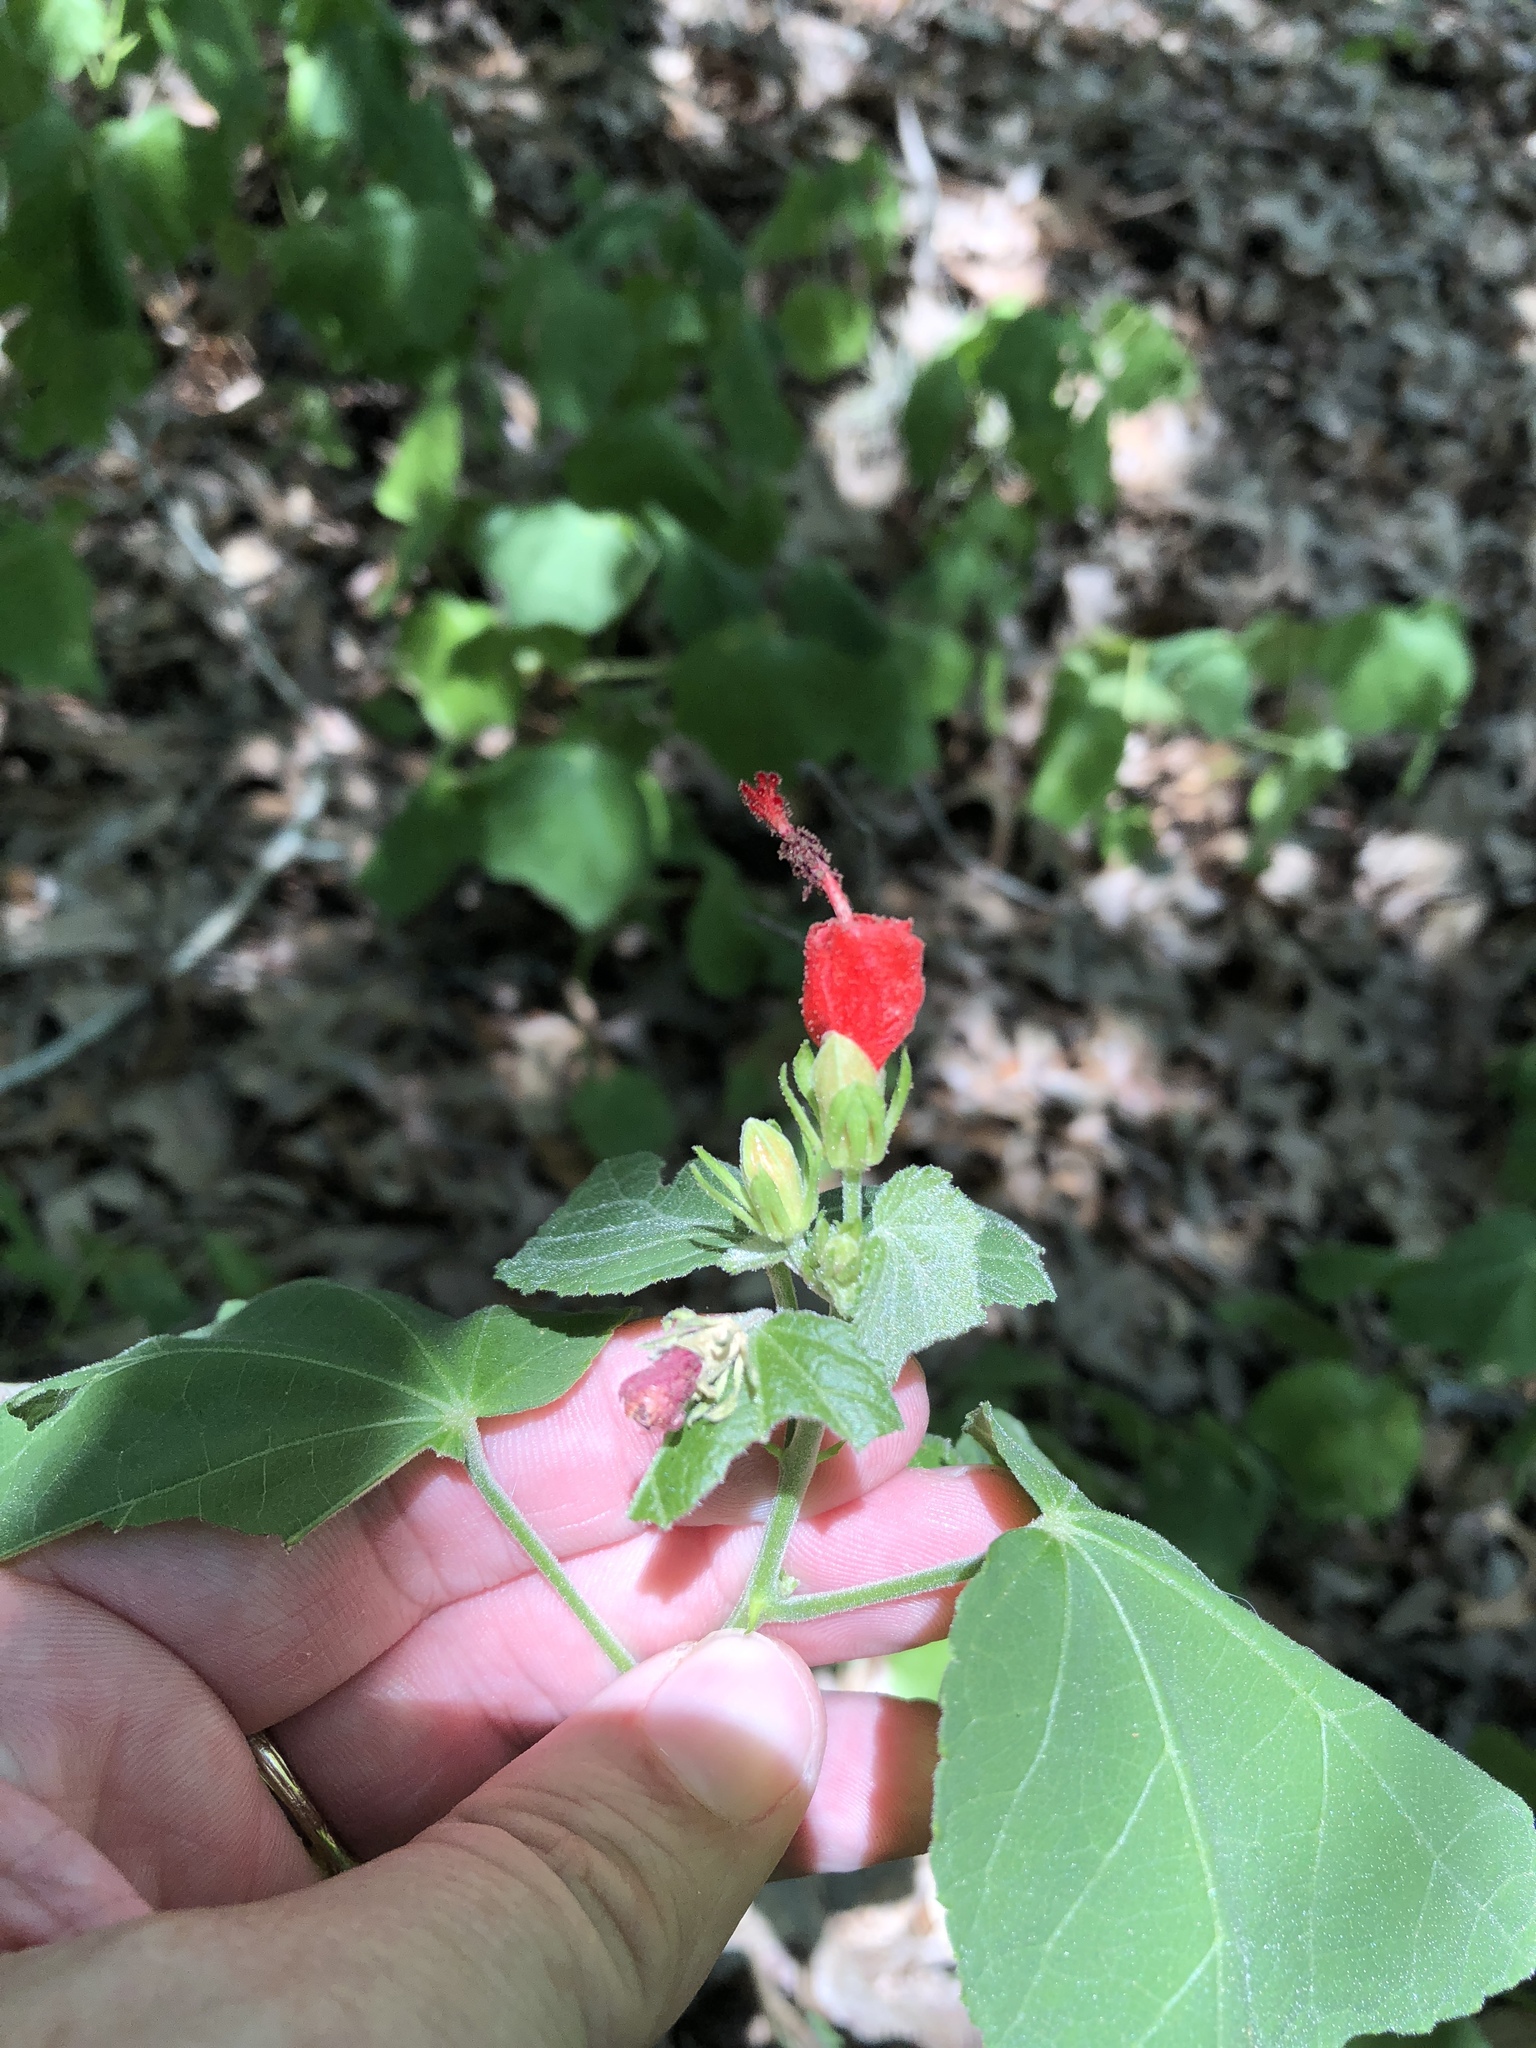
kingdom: Plantae
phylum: Tracheophyta
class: Magnoliopsida
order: Malvales
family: Malvaceae
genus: Malvaviscus
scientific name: Malvaviscus arboreus
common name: Wax mallow
